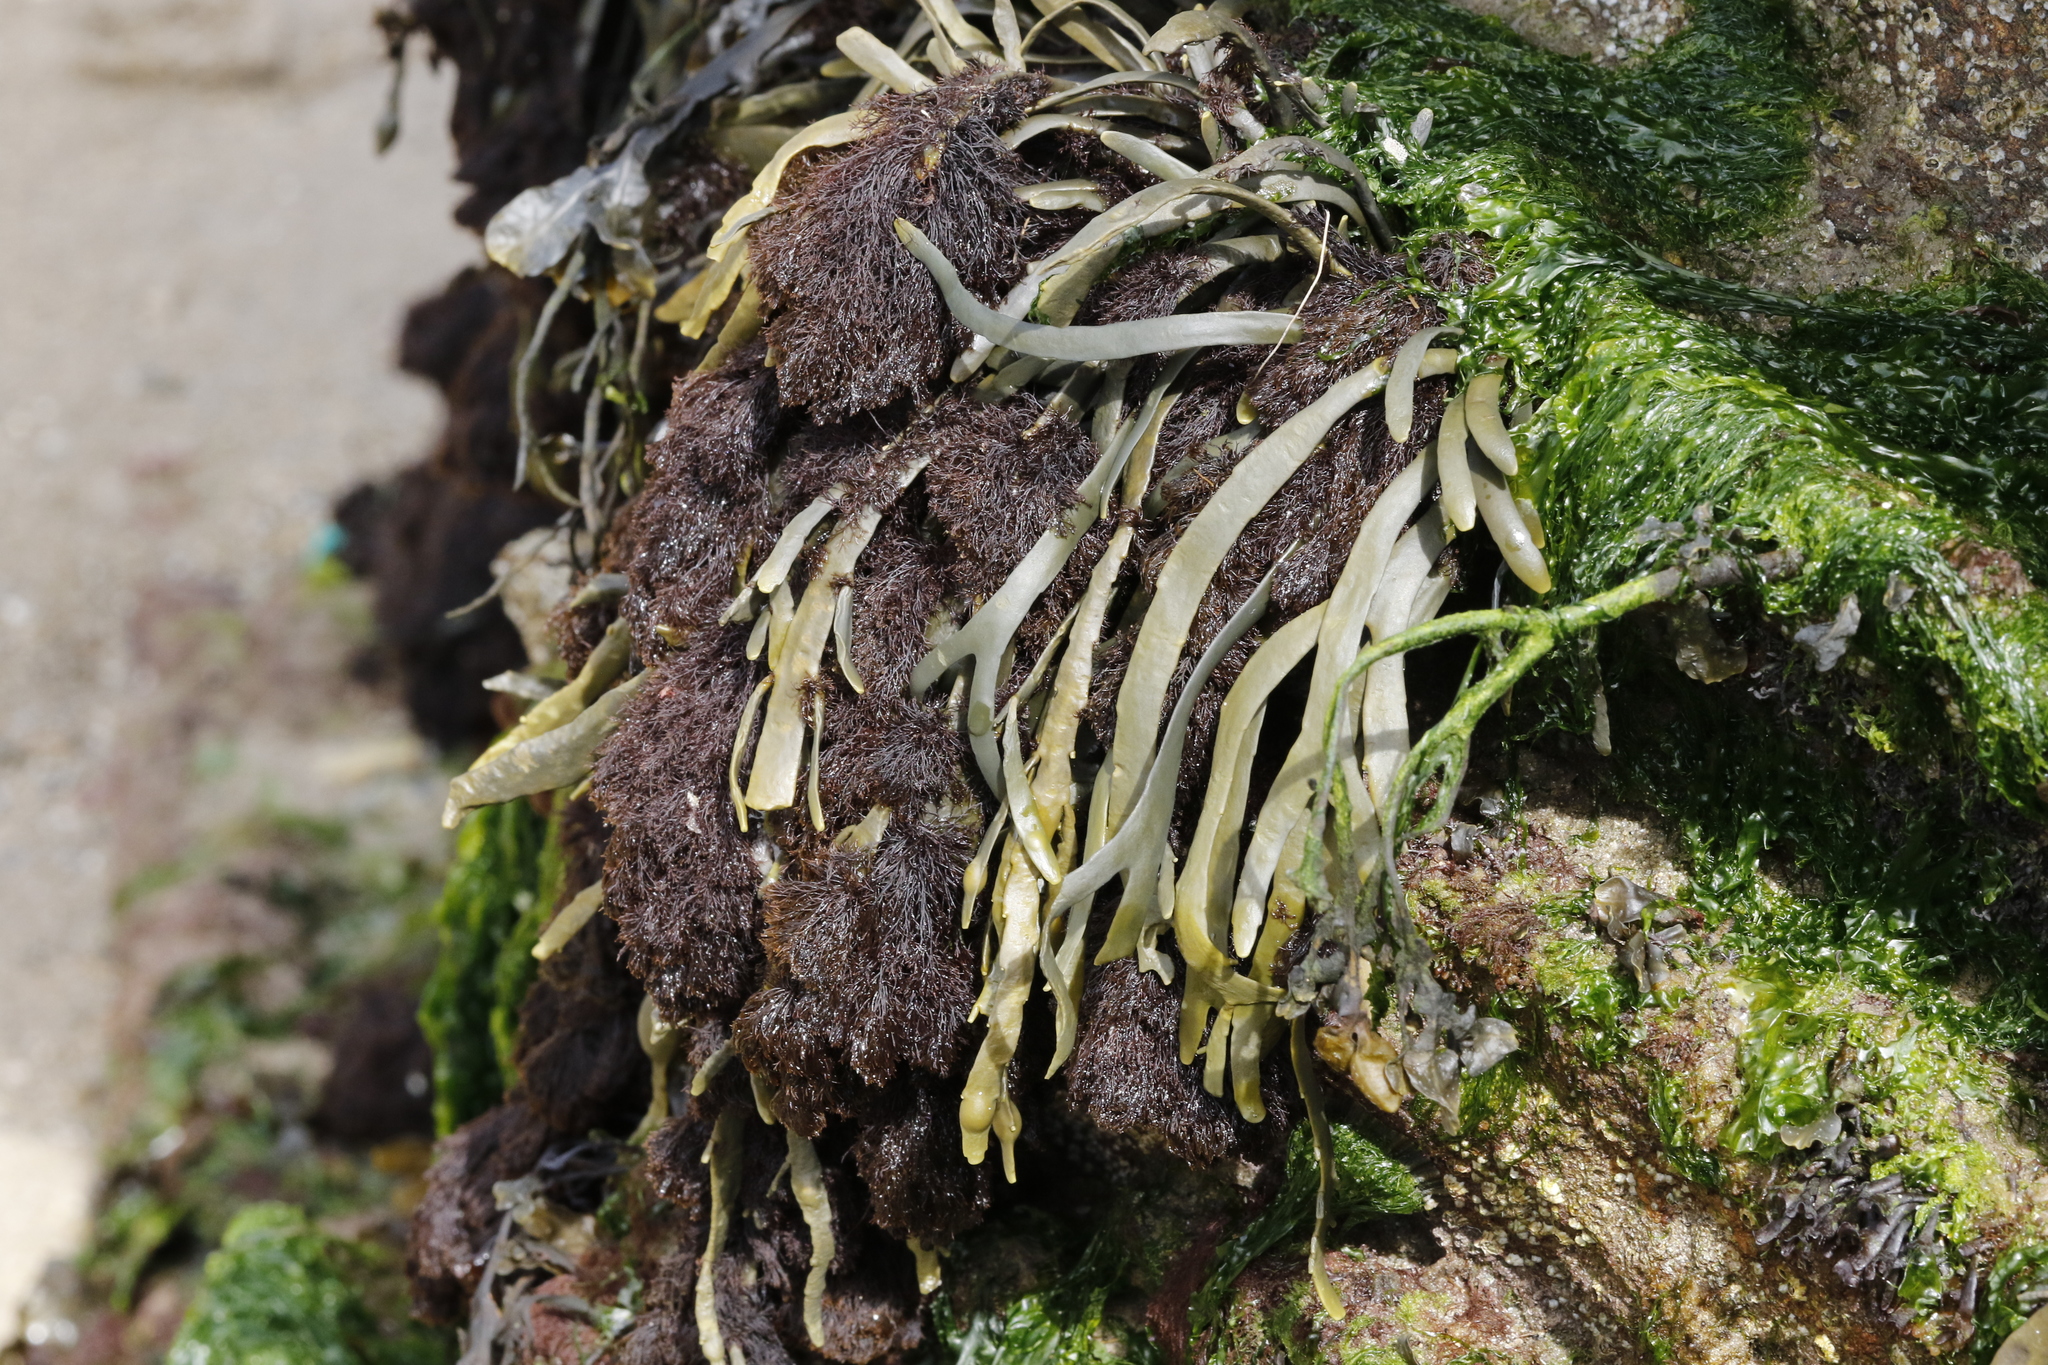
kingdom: Chromista
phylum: Ochrophyta
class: Phaeophyceae
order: Fucales
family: Fucaceae
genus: Ascophyllum
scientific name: Ascophyllum nodosum
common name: Knotted wrack
